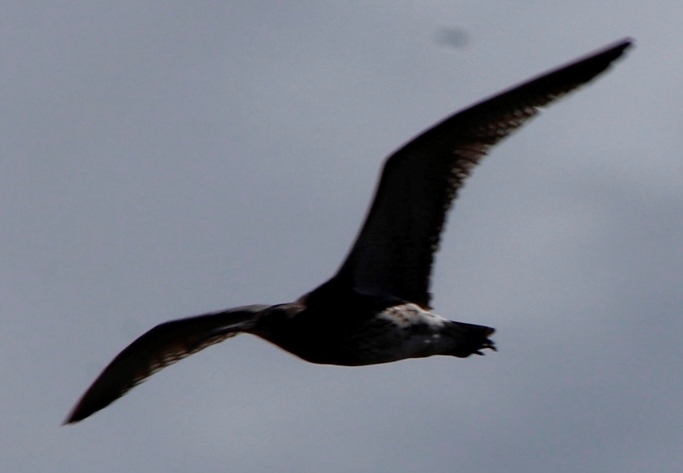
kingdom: Animalia
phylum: Chordata
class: Aves
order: Charadriiformes
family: Scolopacidae
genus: Numenius
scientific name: Numenius arquata
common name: Eurasian curlew
